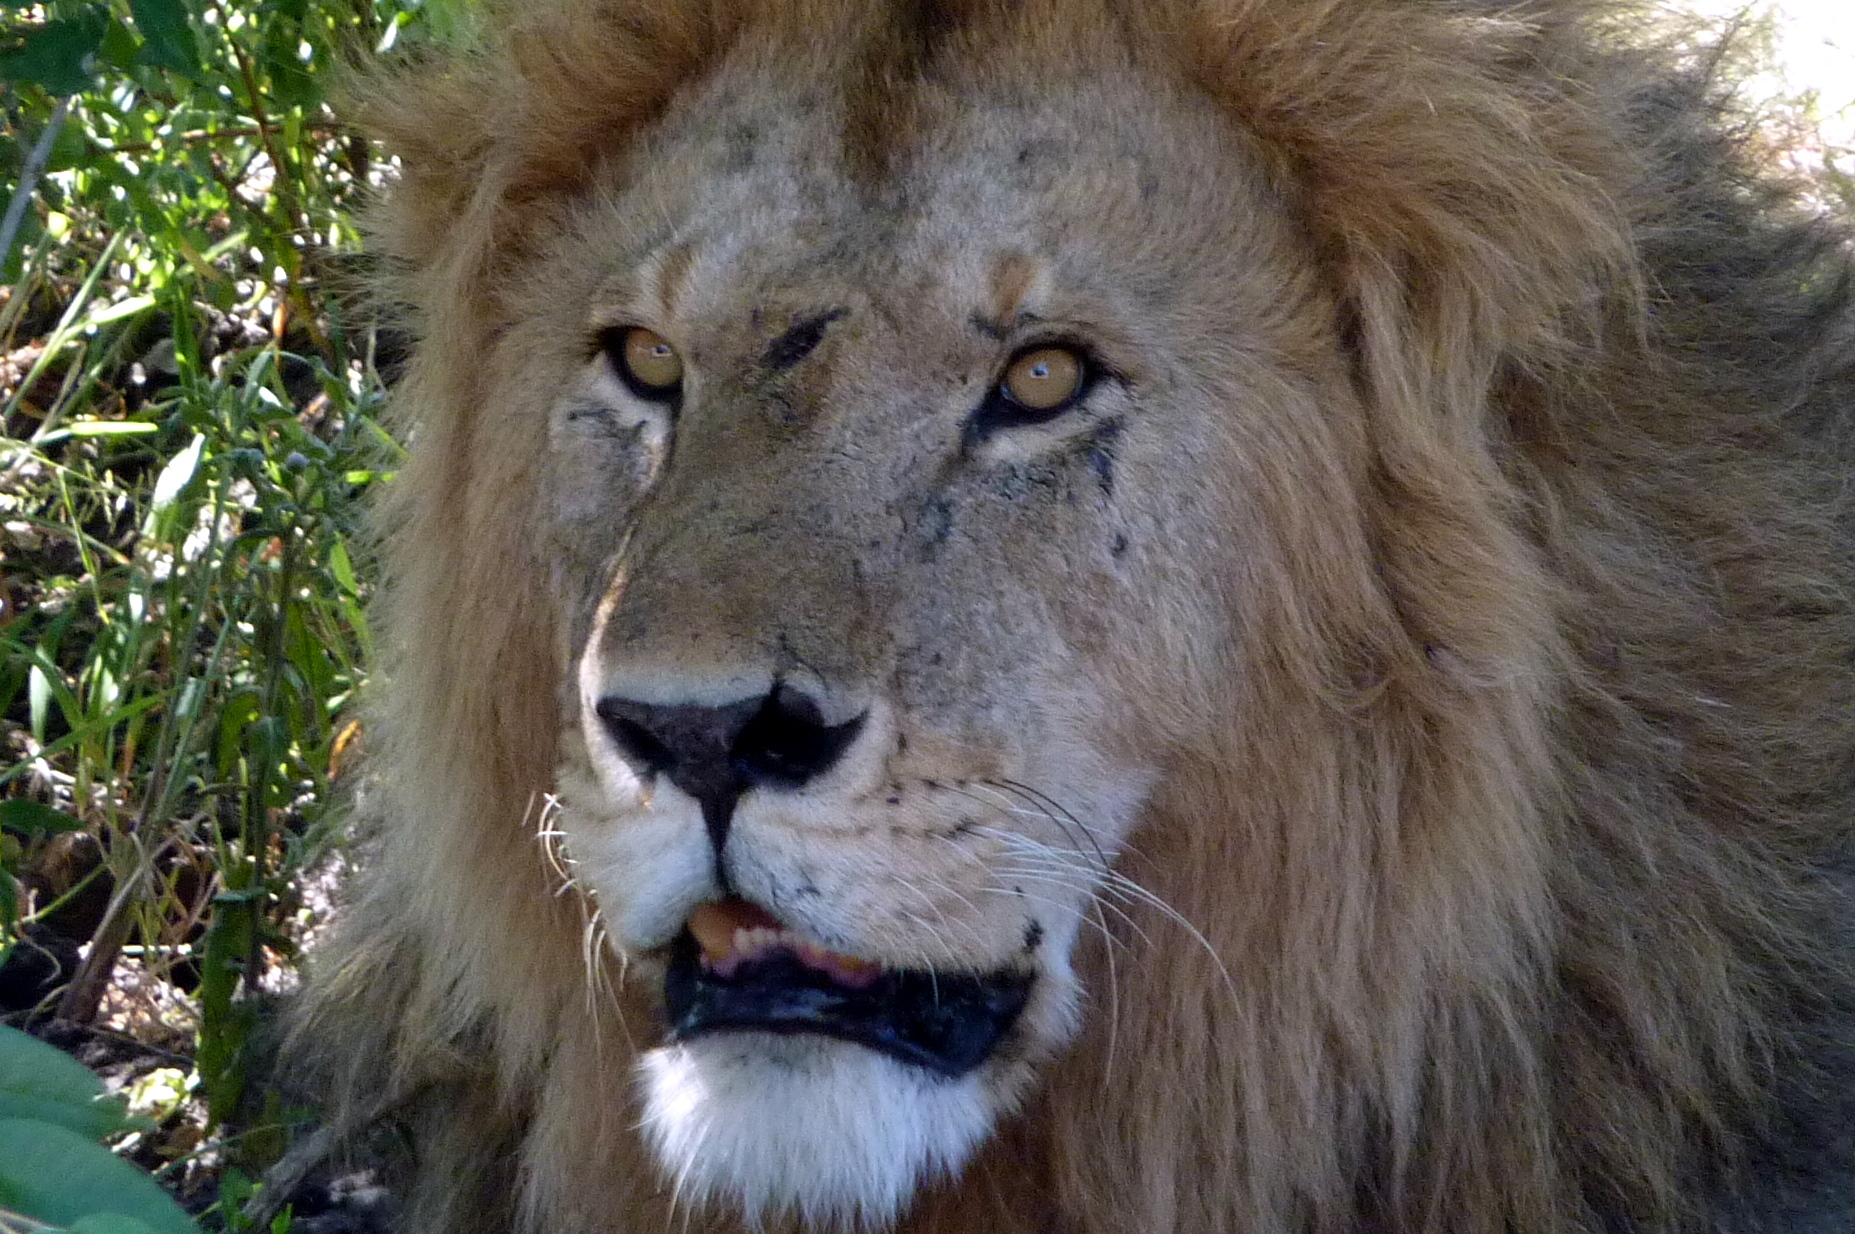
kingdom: Animalia
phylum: Chordata
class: Mammalia
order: Carnivora
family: Felidae
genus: Panthera
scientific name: Panthera leo
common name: Lion
